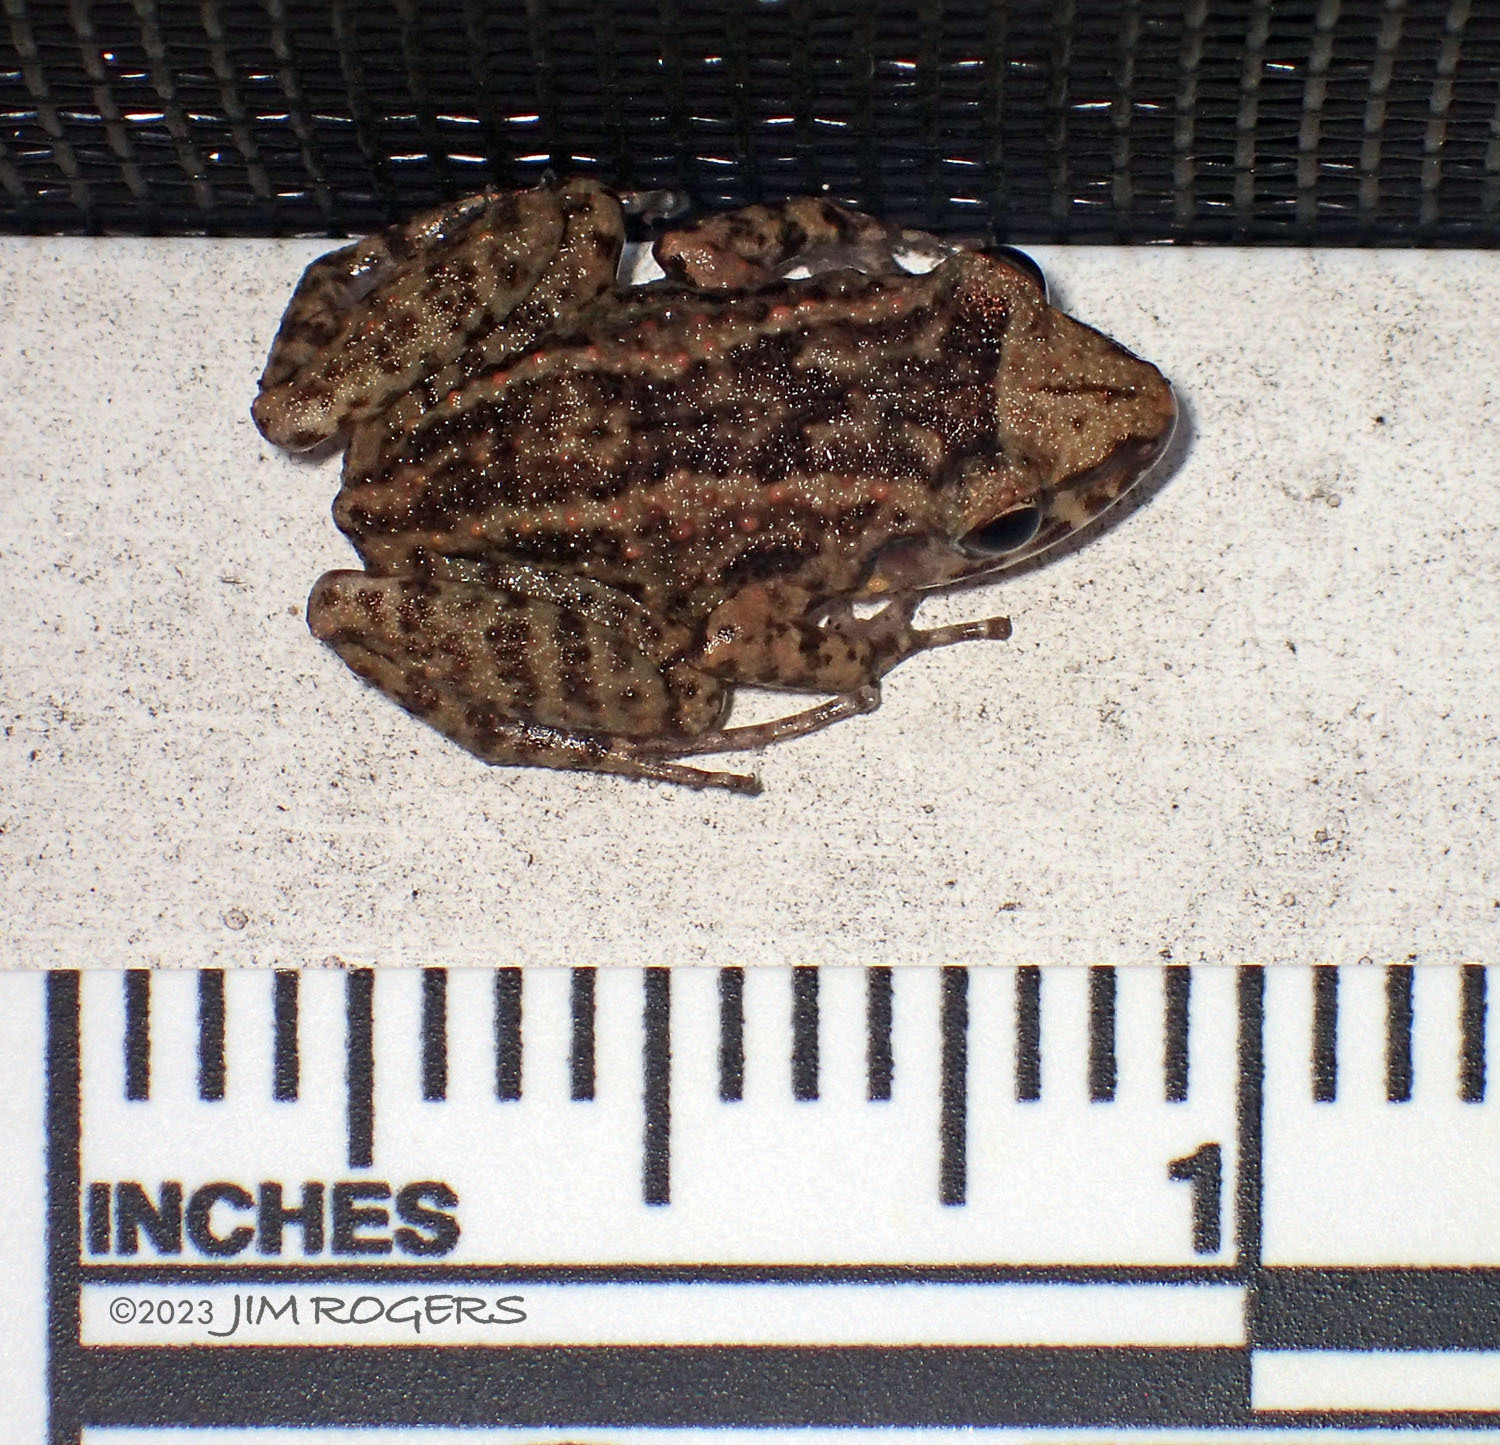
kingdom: Animalia
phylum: Chordata
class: Amphibia
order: Anura
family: Eleutherodactylidae
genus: Eleutherodactylus
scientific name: Eleutherodactylus planirostris
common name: Greenhouse frog
